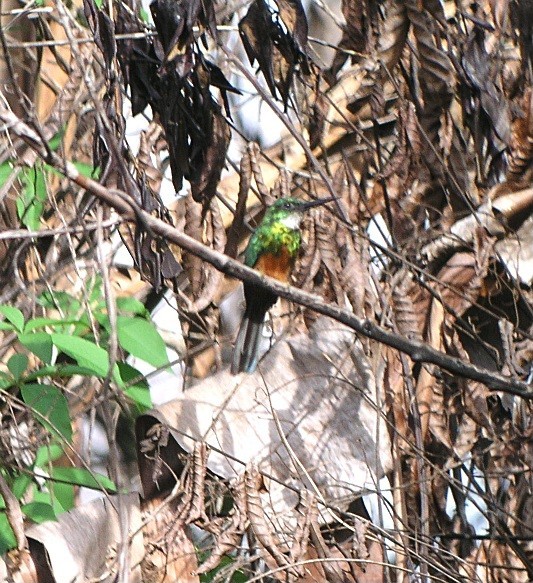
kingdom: Animalia
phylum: Chordata
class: Aves
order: Piciformes
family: Galbulidae
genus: Galbula
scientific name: Galbula galbula
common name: Green-tailed jacamar
